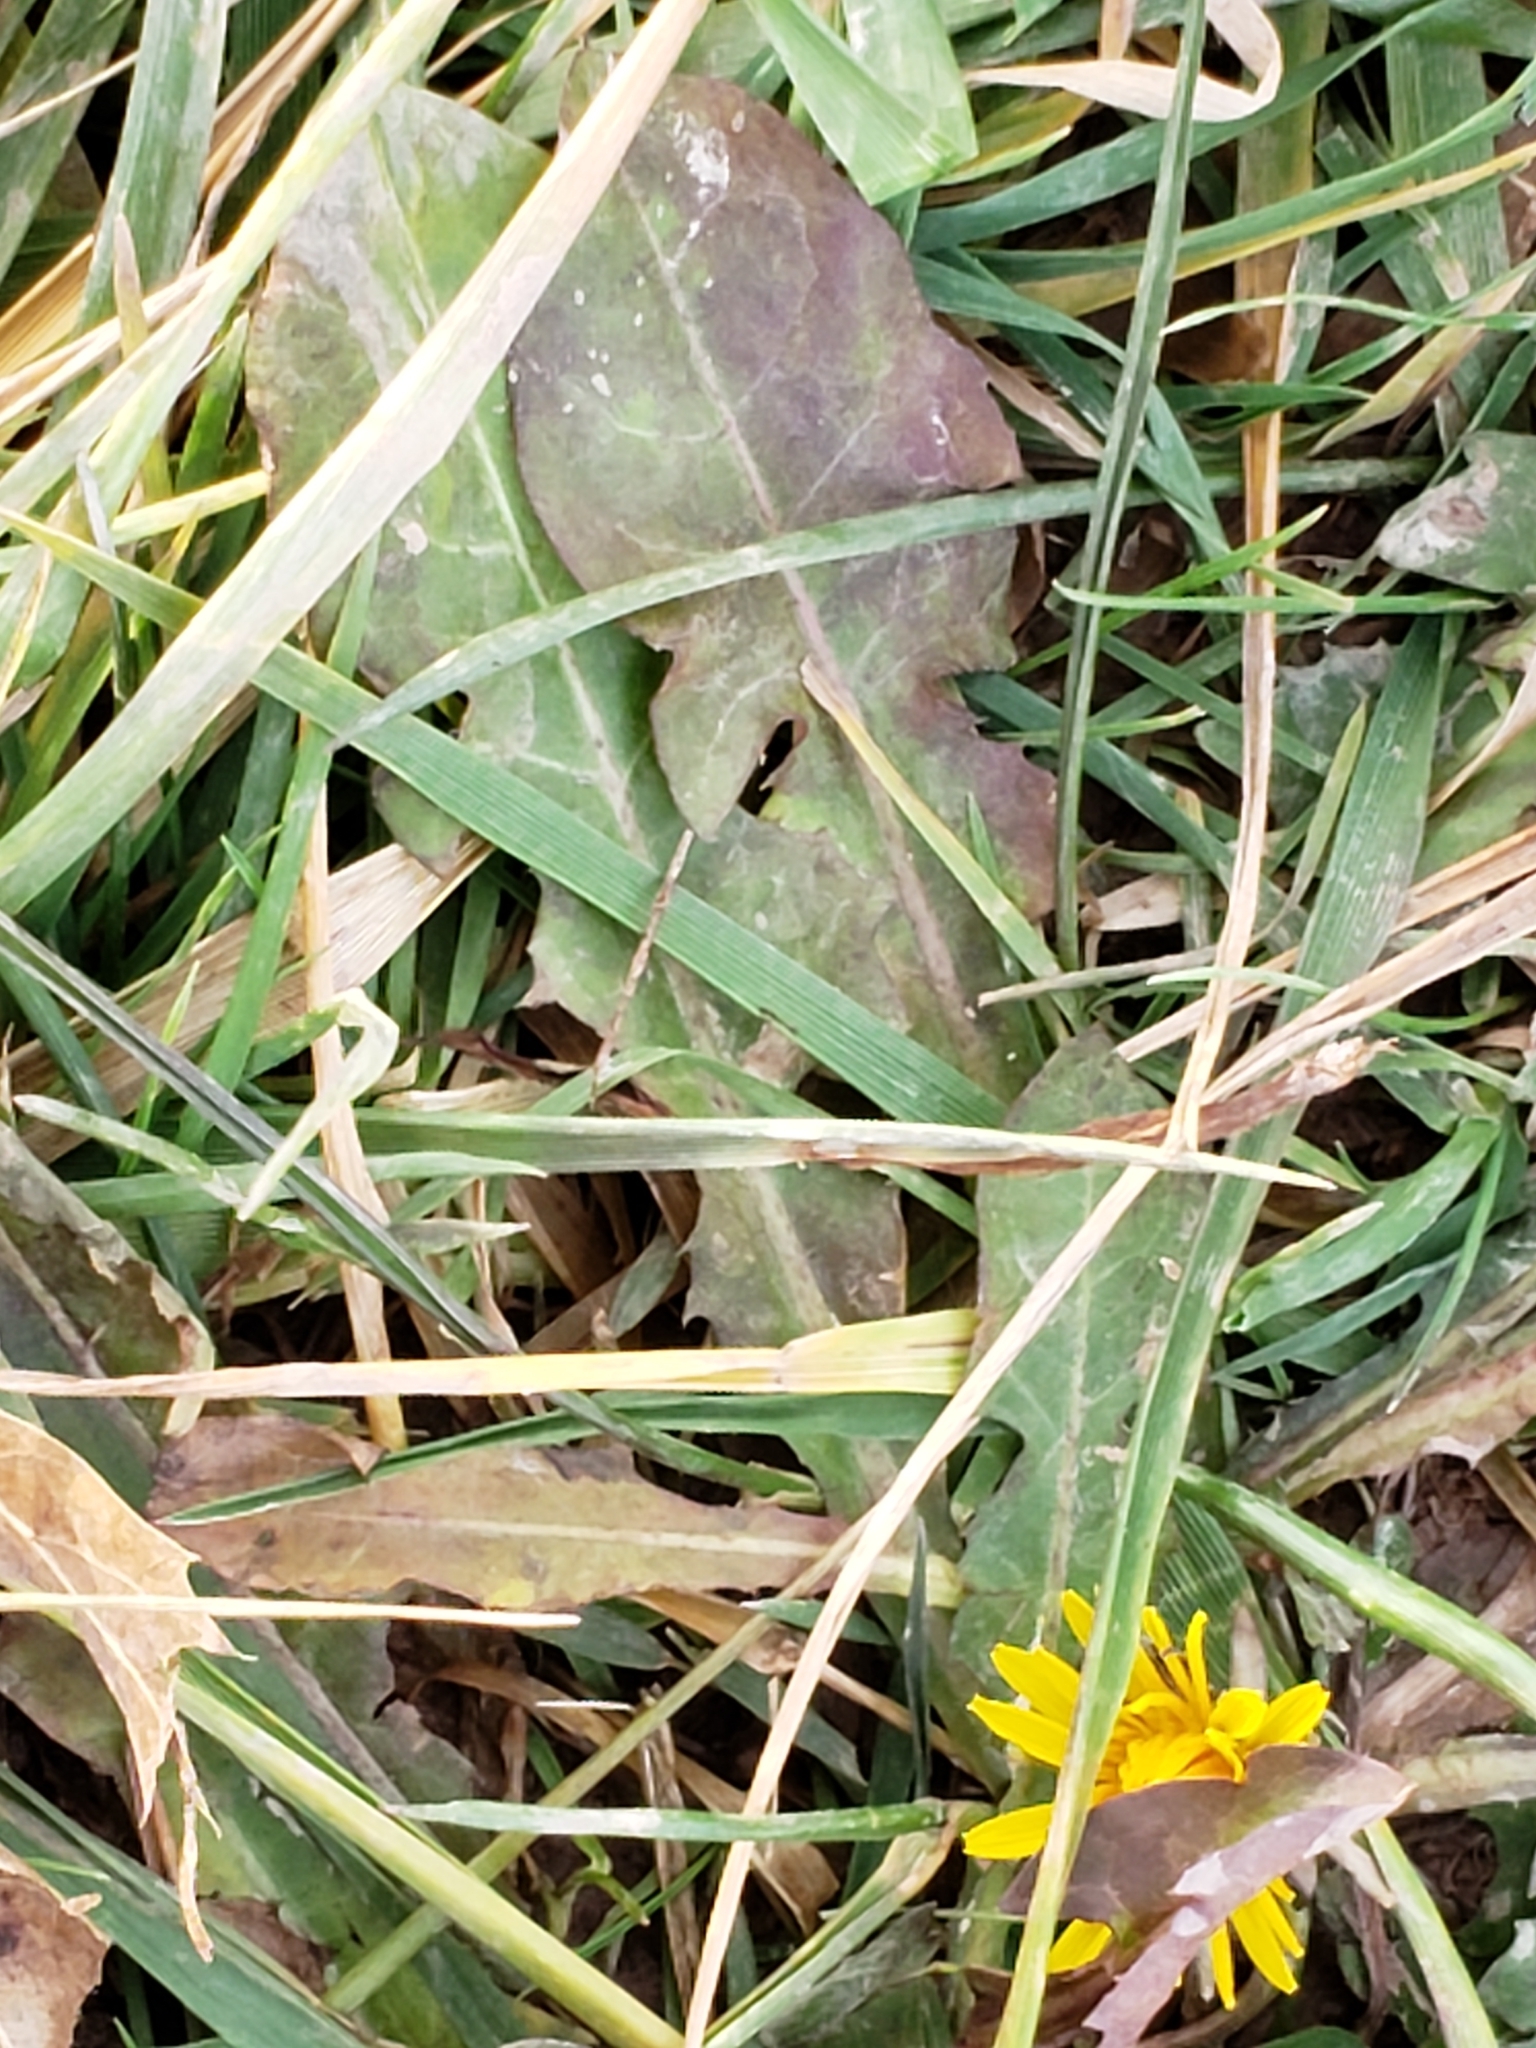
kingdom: Plantae
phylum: Tracheophyta
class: Magnoliopsida
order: Asterales
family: Asteraceae
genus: Taraxacum
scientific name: Taraxacum officinale
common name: Common dandelion
